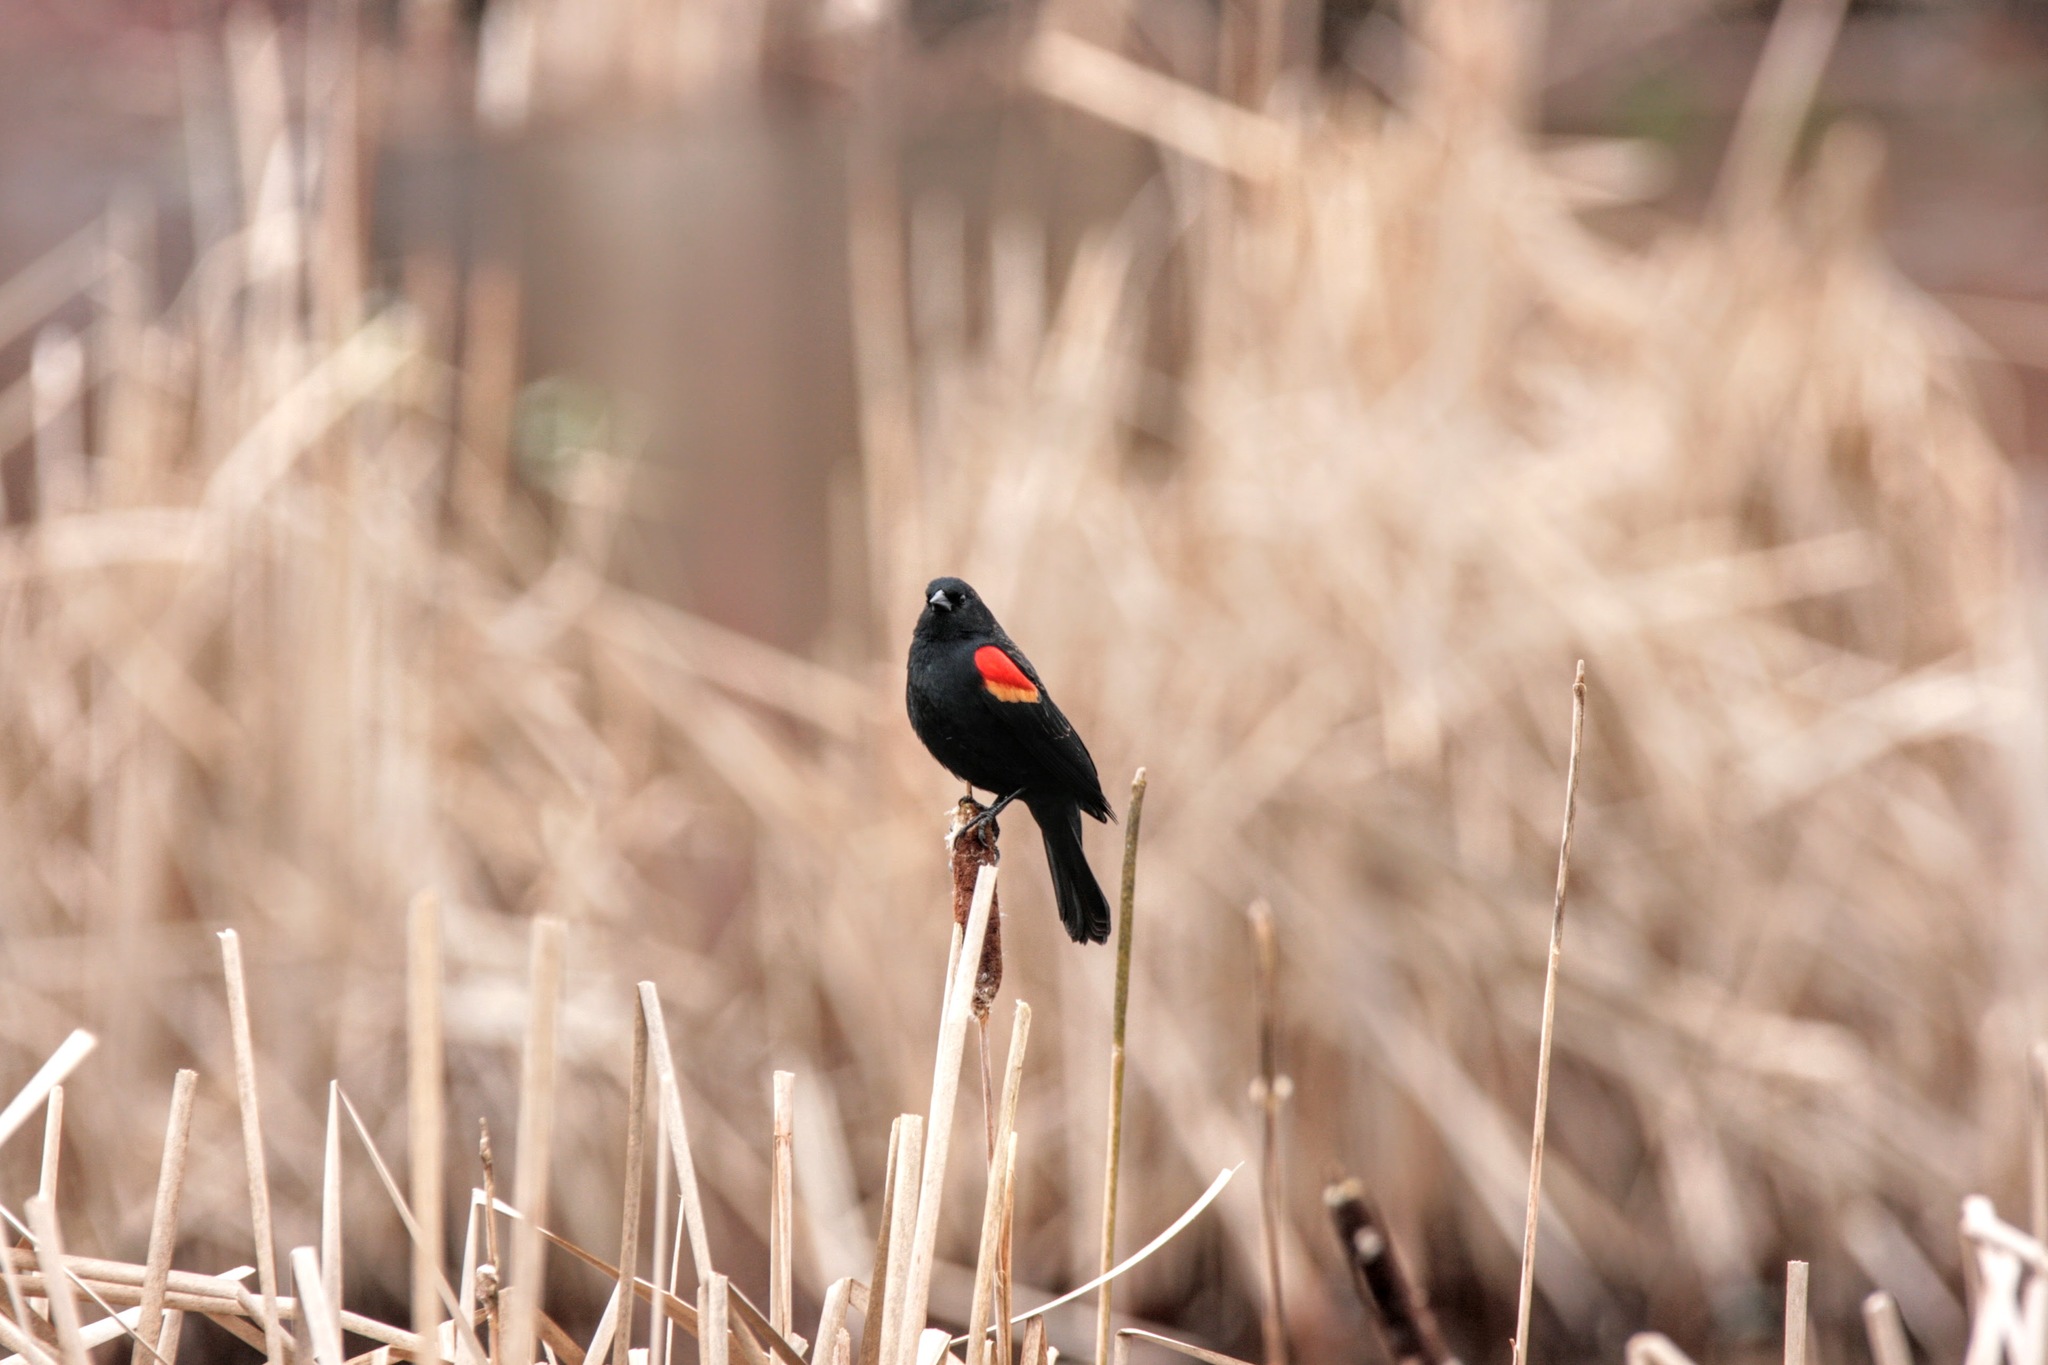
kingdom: Animalia
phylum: Chordata
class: Aves
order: Passeriformes
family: Icteridae
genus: Agelaius
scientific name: Agelaius phoeniceus
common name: Red-winged blackbird
